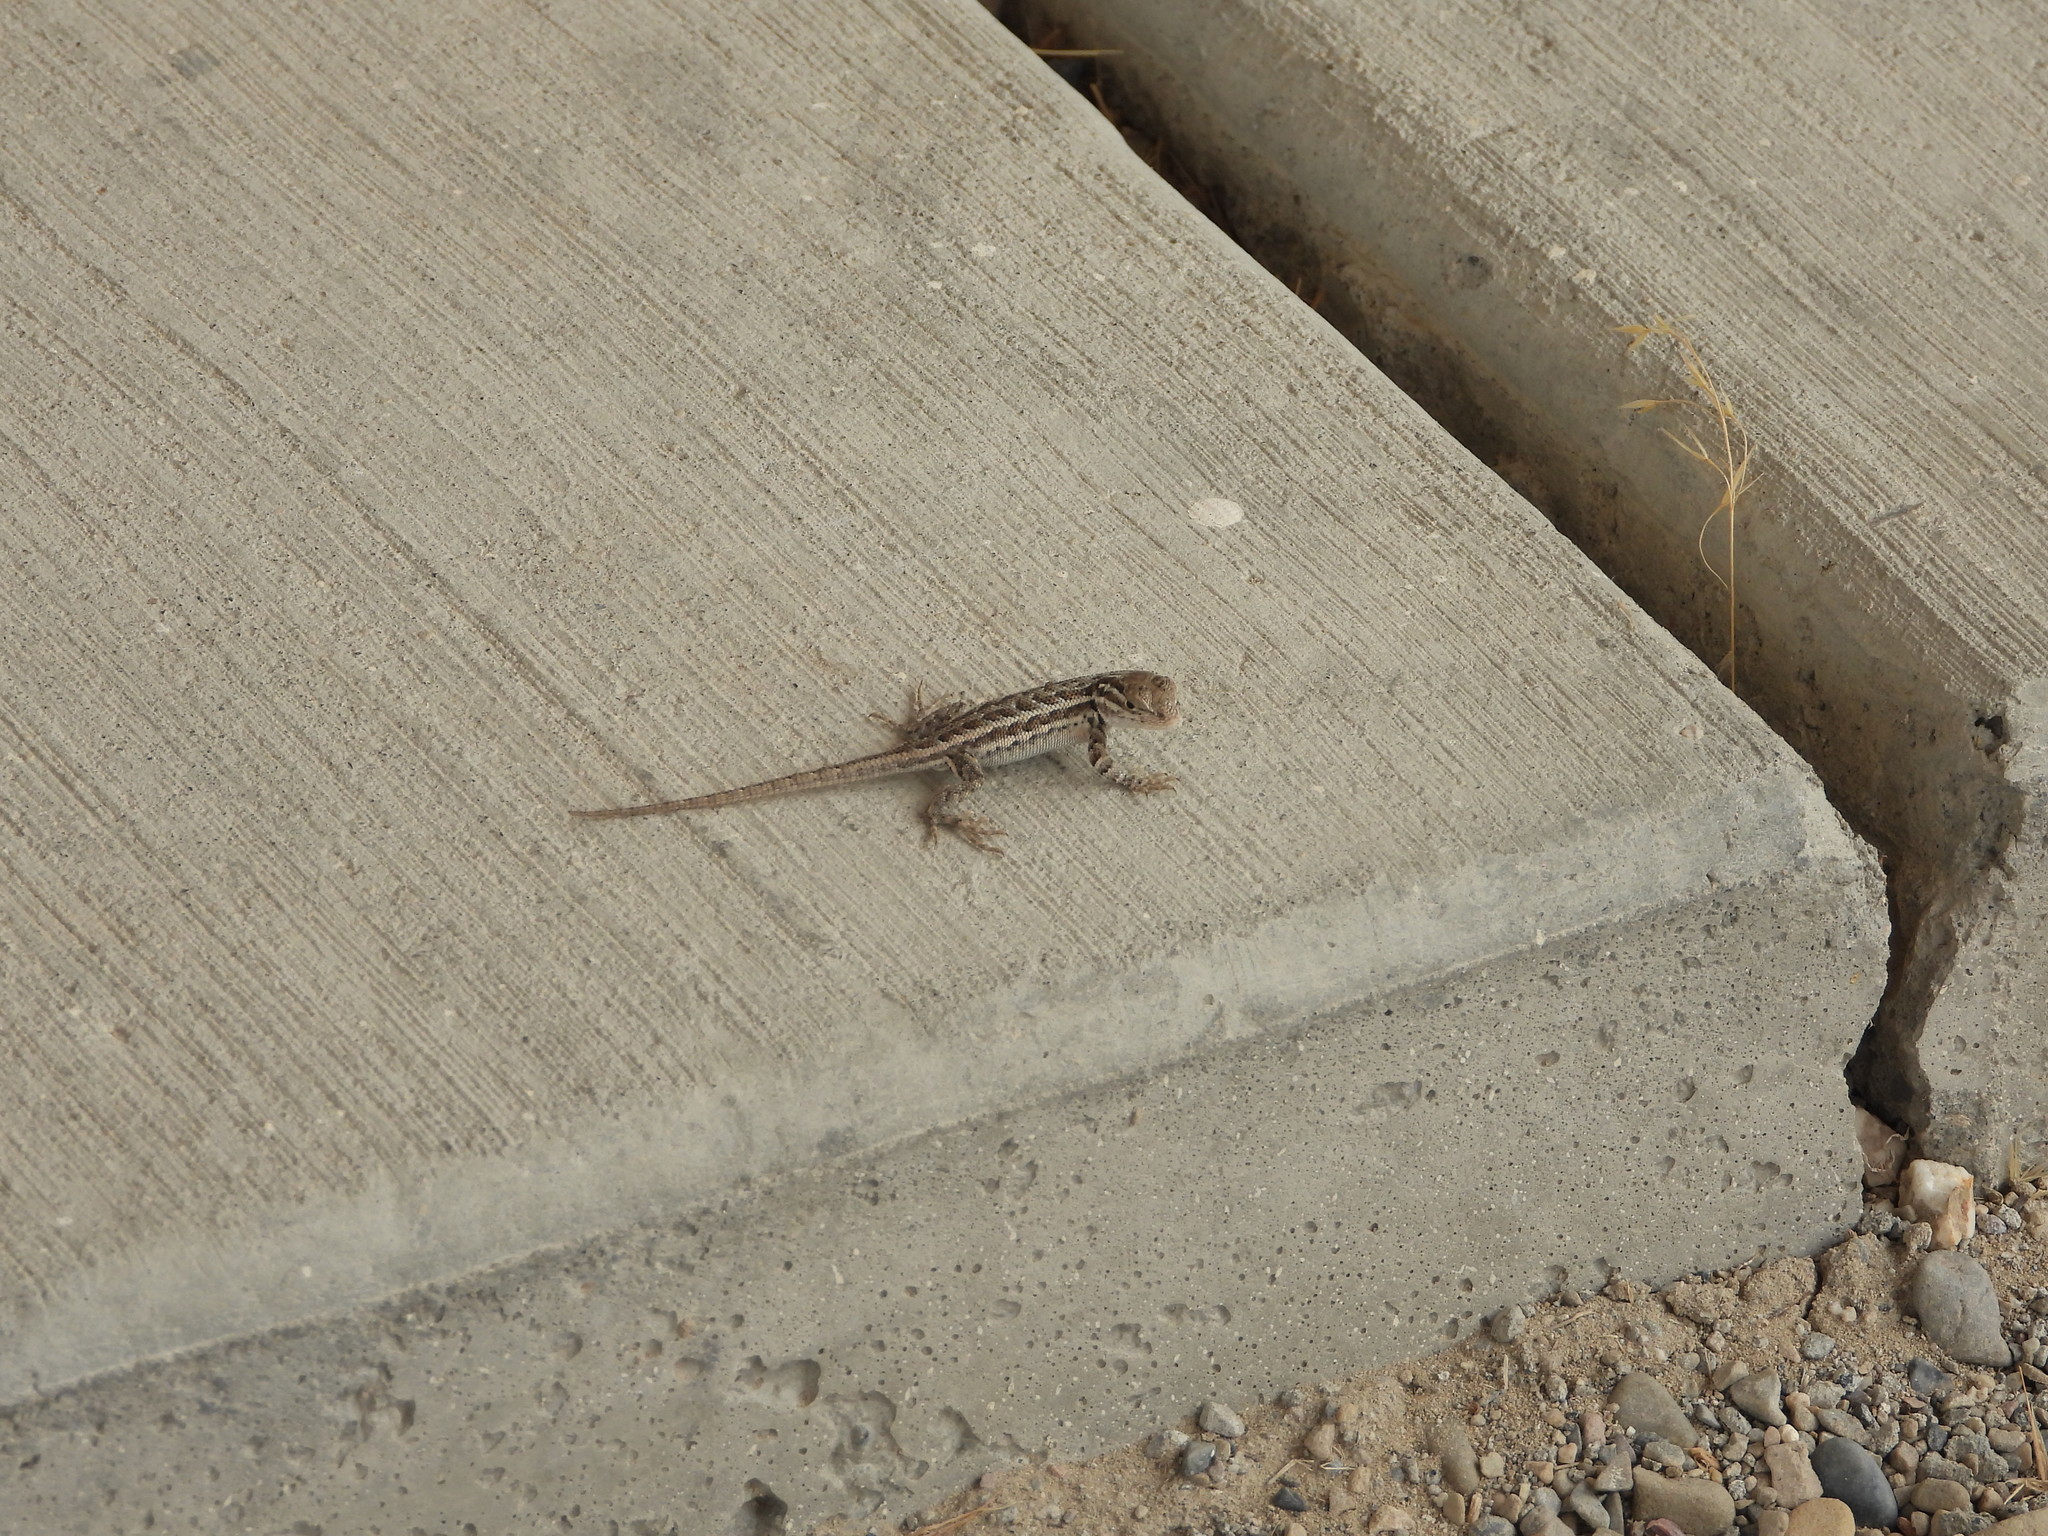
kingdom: Animalia
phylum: Chordata
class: Squamata
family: Phrynosomatidae
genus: Sceloporus
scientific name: Sceloporus graciosus
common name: Sagebrush lizard
